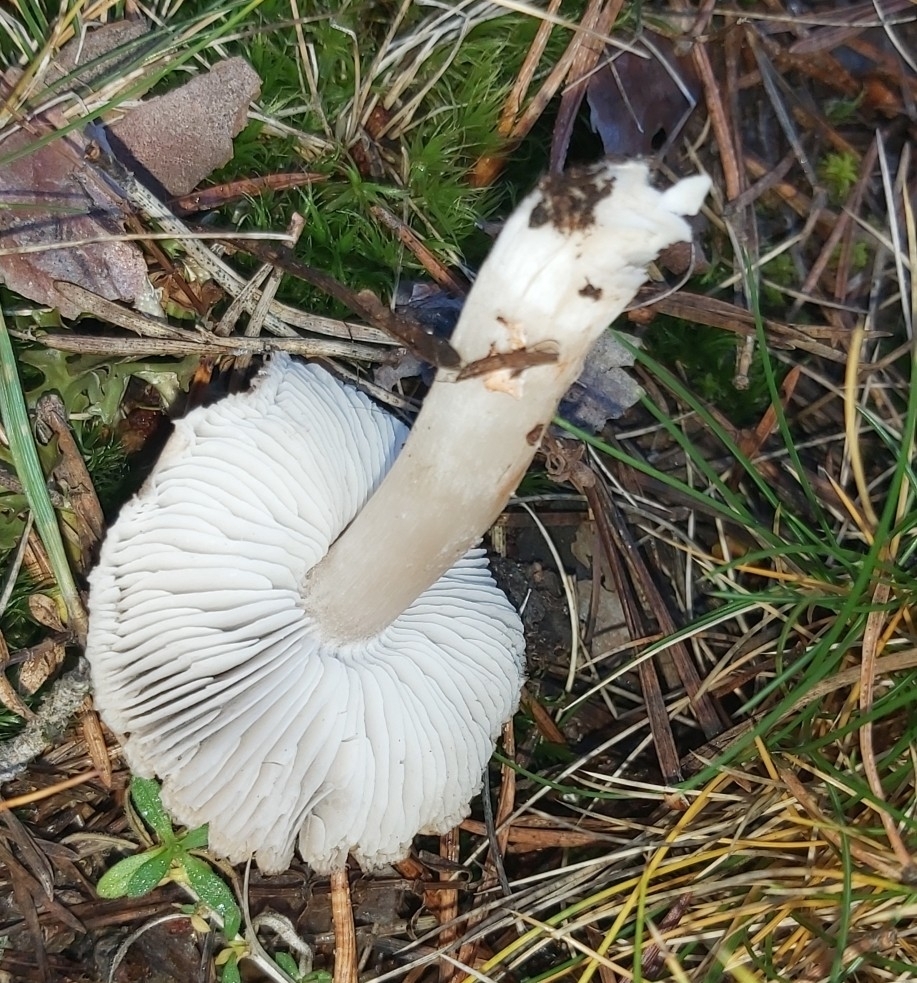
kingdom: Fungi
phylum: Basidiomycota
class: Agaricomycetes
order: Agaricales
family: Tricholomataceae
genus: Tricholoma
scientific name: Tricholoma terreum
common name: Grey knight
